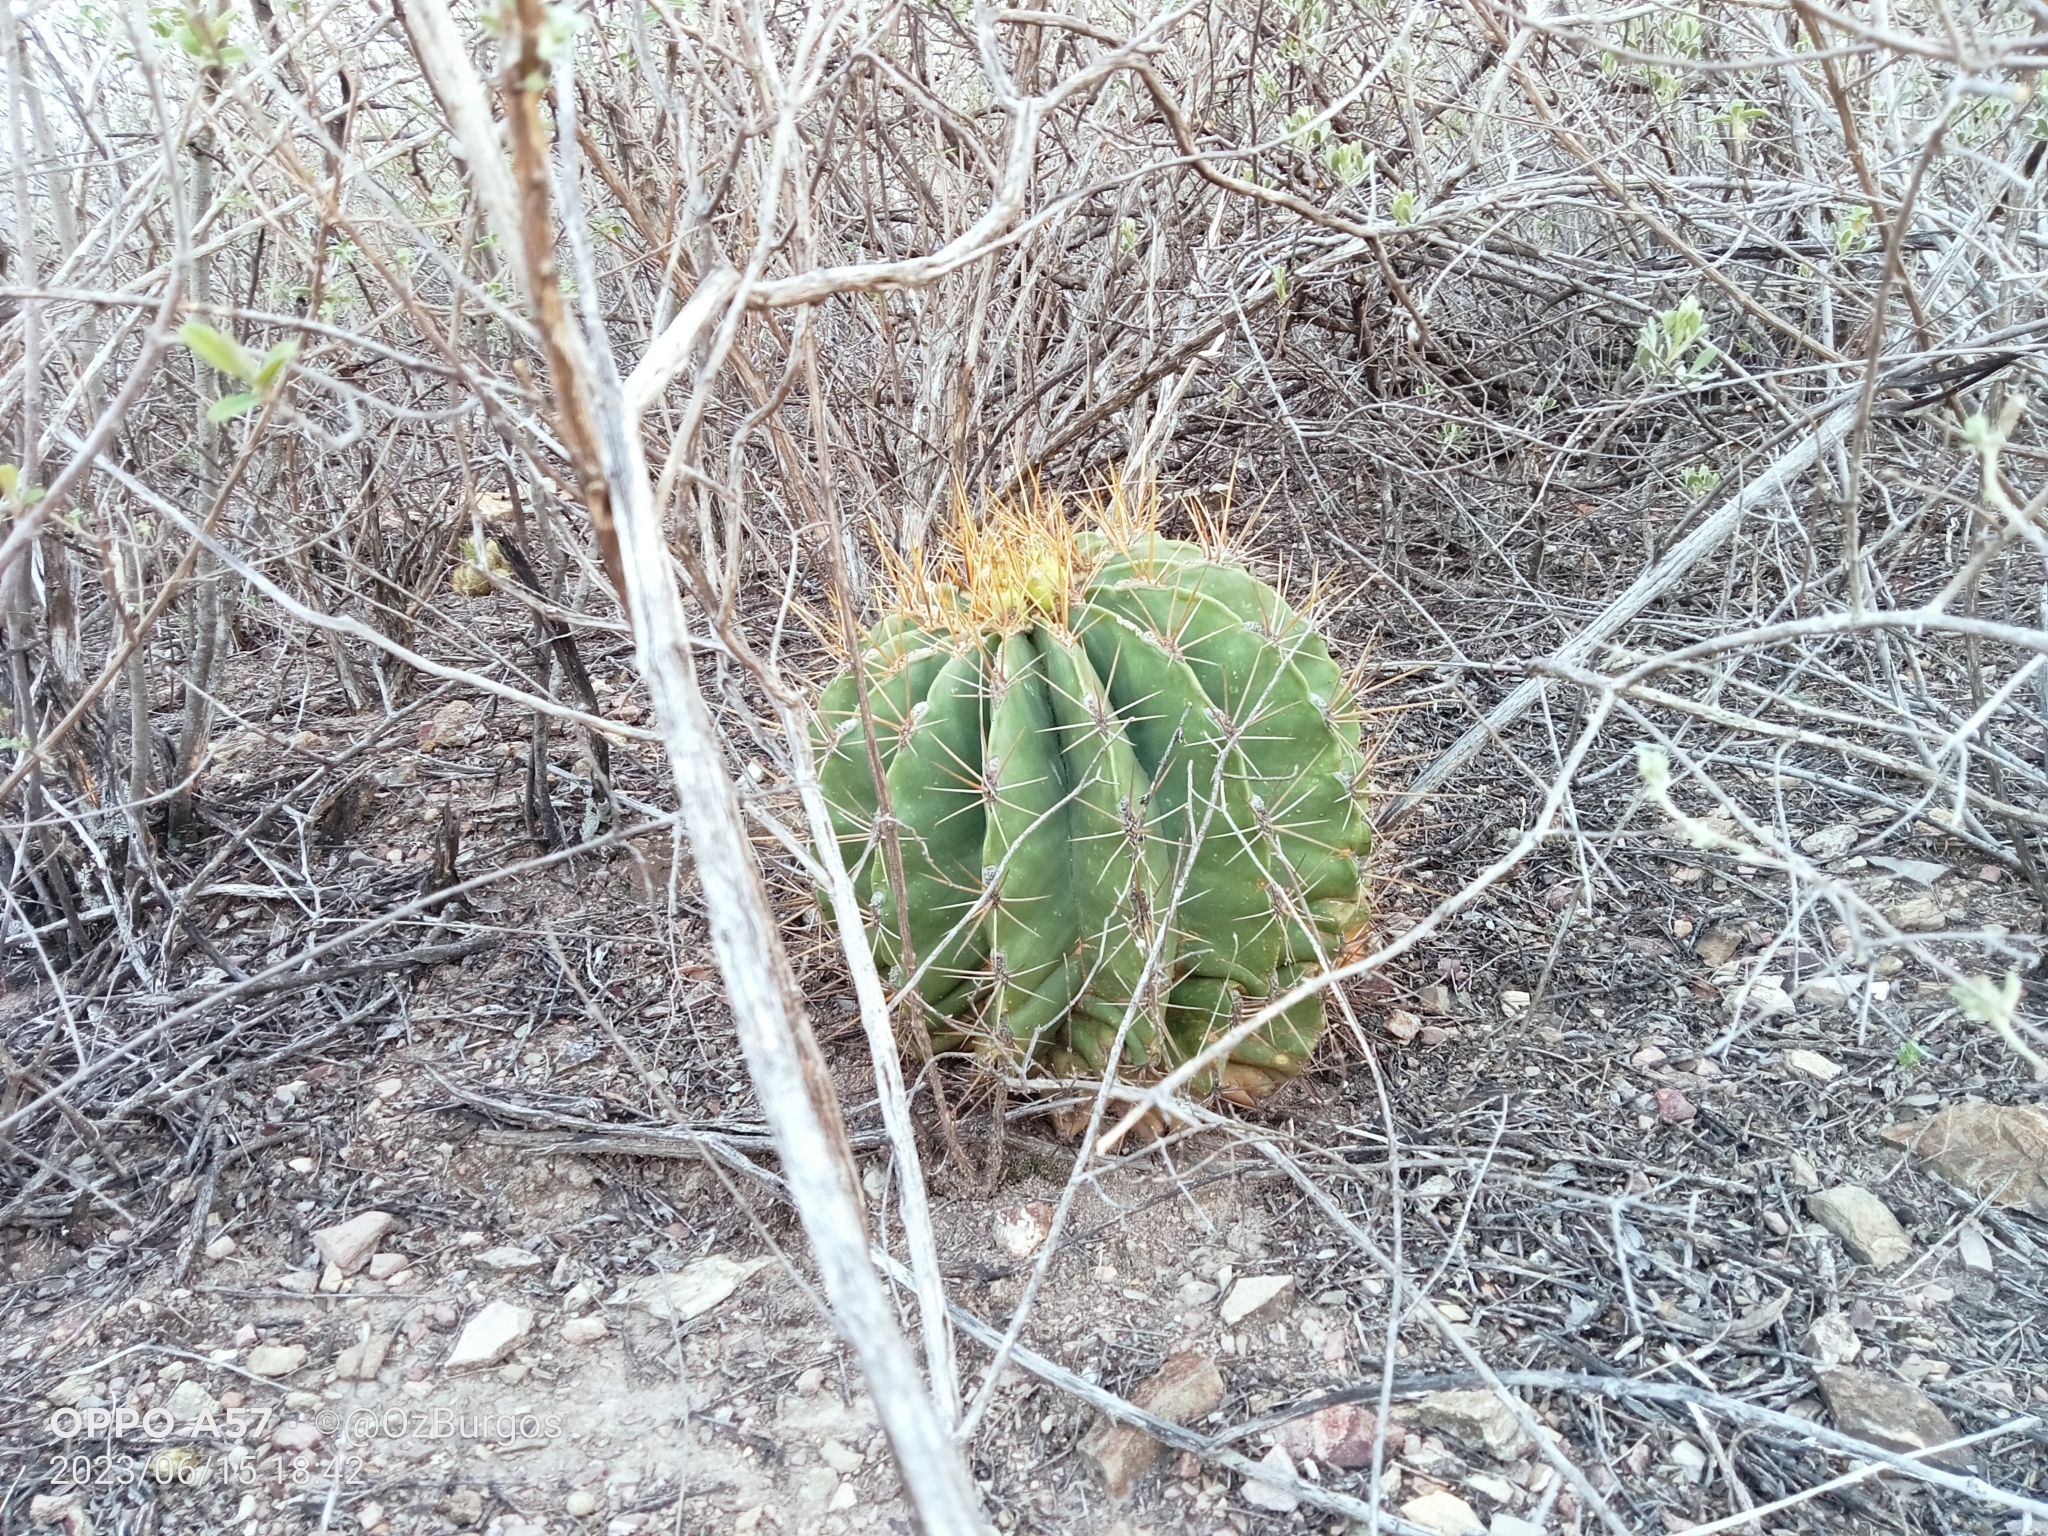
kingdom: Plantae
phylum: Tracheophyta
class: Magnoliopsida
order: Caryophyllales
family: Cactaceae
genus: Parrycactus
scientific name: Parrycactus echidne
